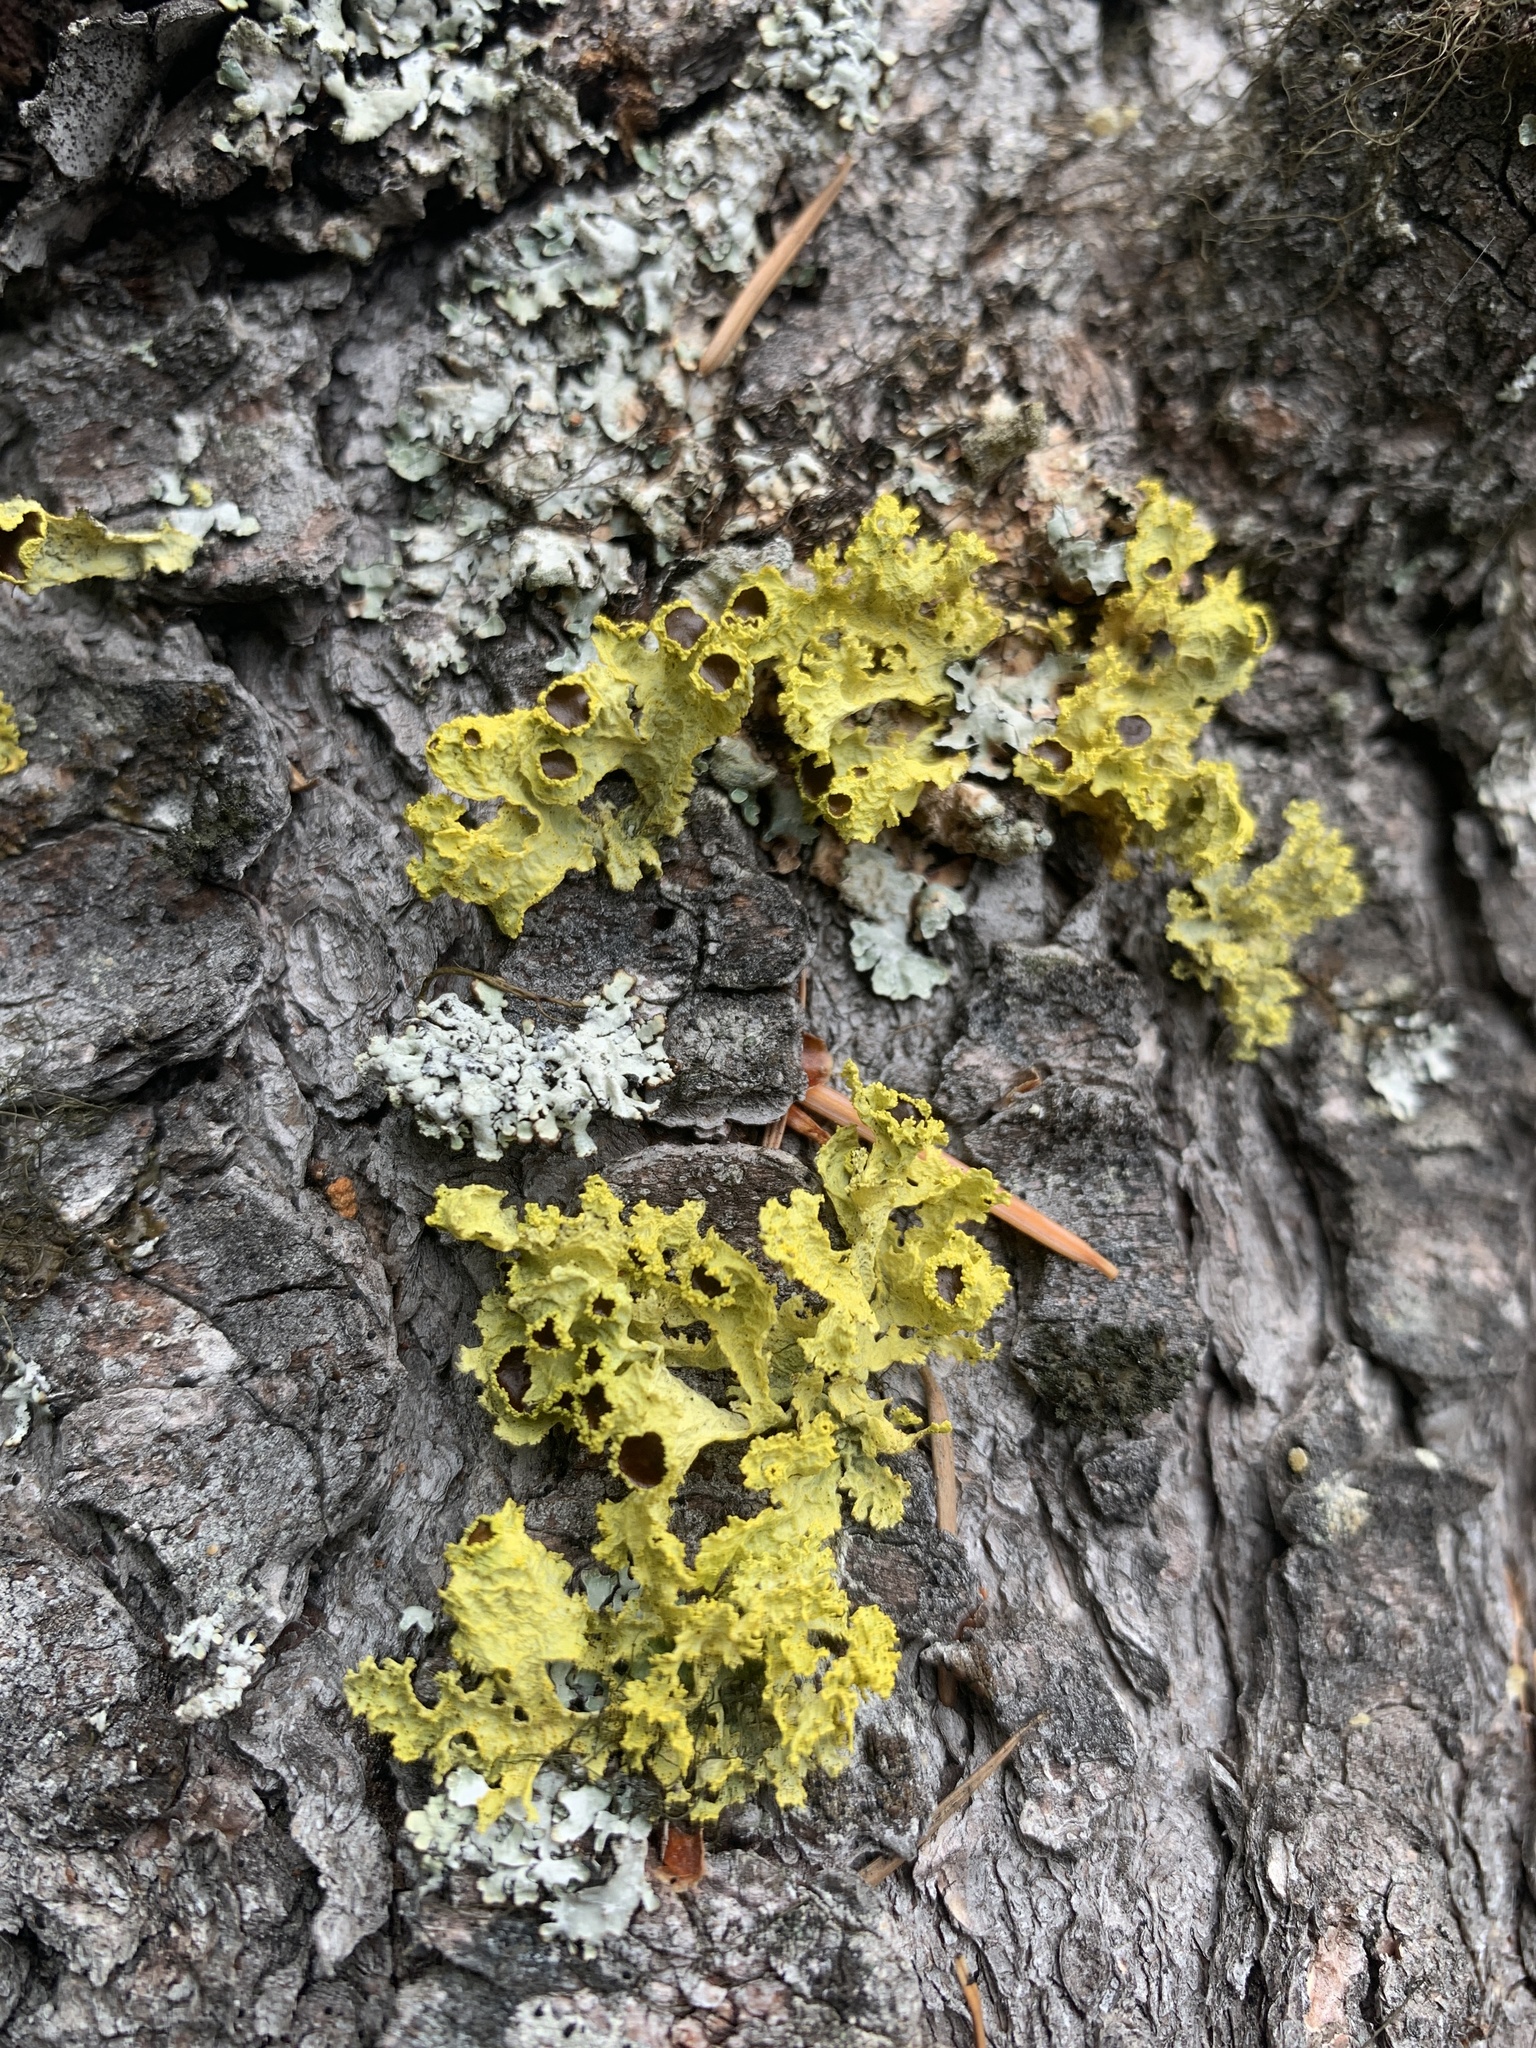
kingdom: Fungi
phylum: Ascomycota
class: Lecanoromycetes
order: Lecanorales
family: Parmeliaceae
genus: Vulpicida
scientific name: Vulpicida canadensis
